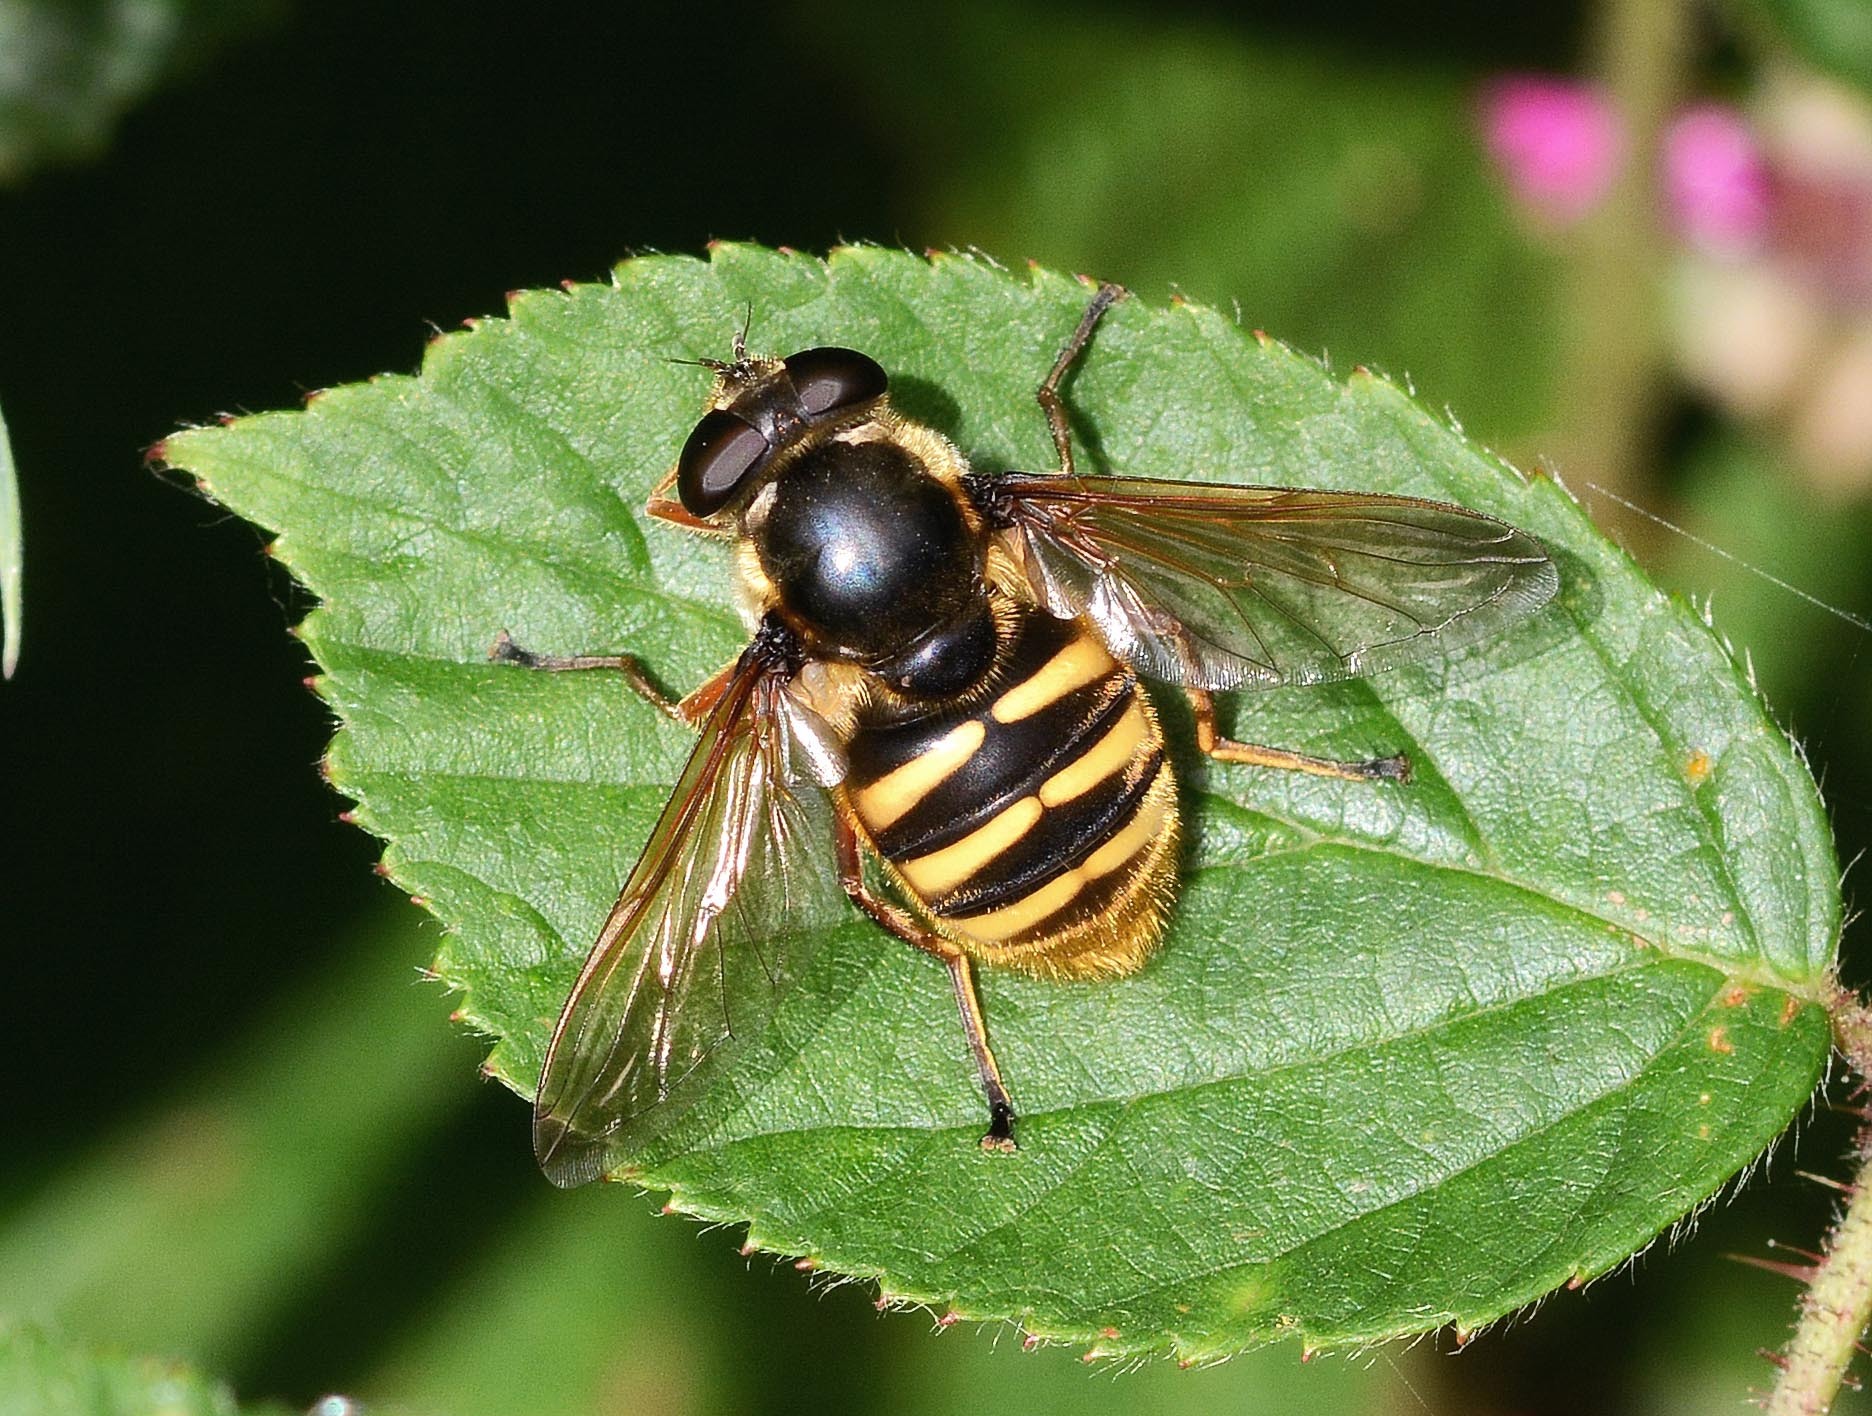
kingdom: Animalia
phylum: Arthropoda
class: Insecta
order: Diptera
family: Syrphidae
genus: Sericomyia
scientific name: Sericomyia silentis
